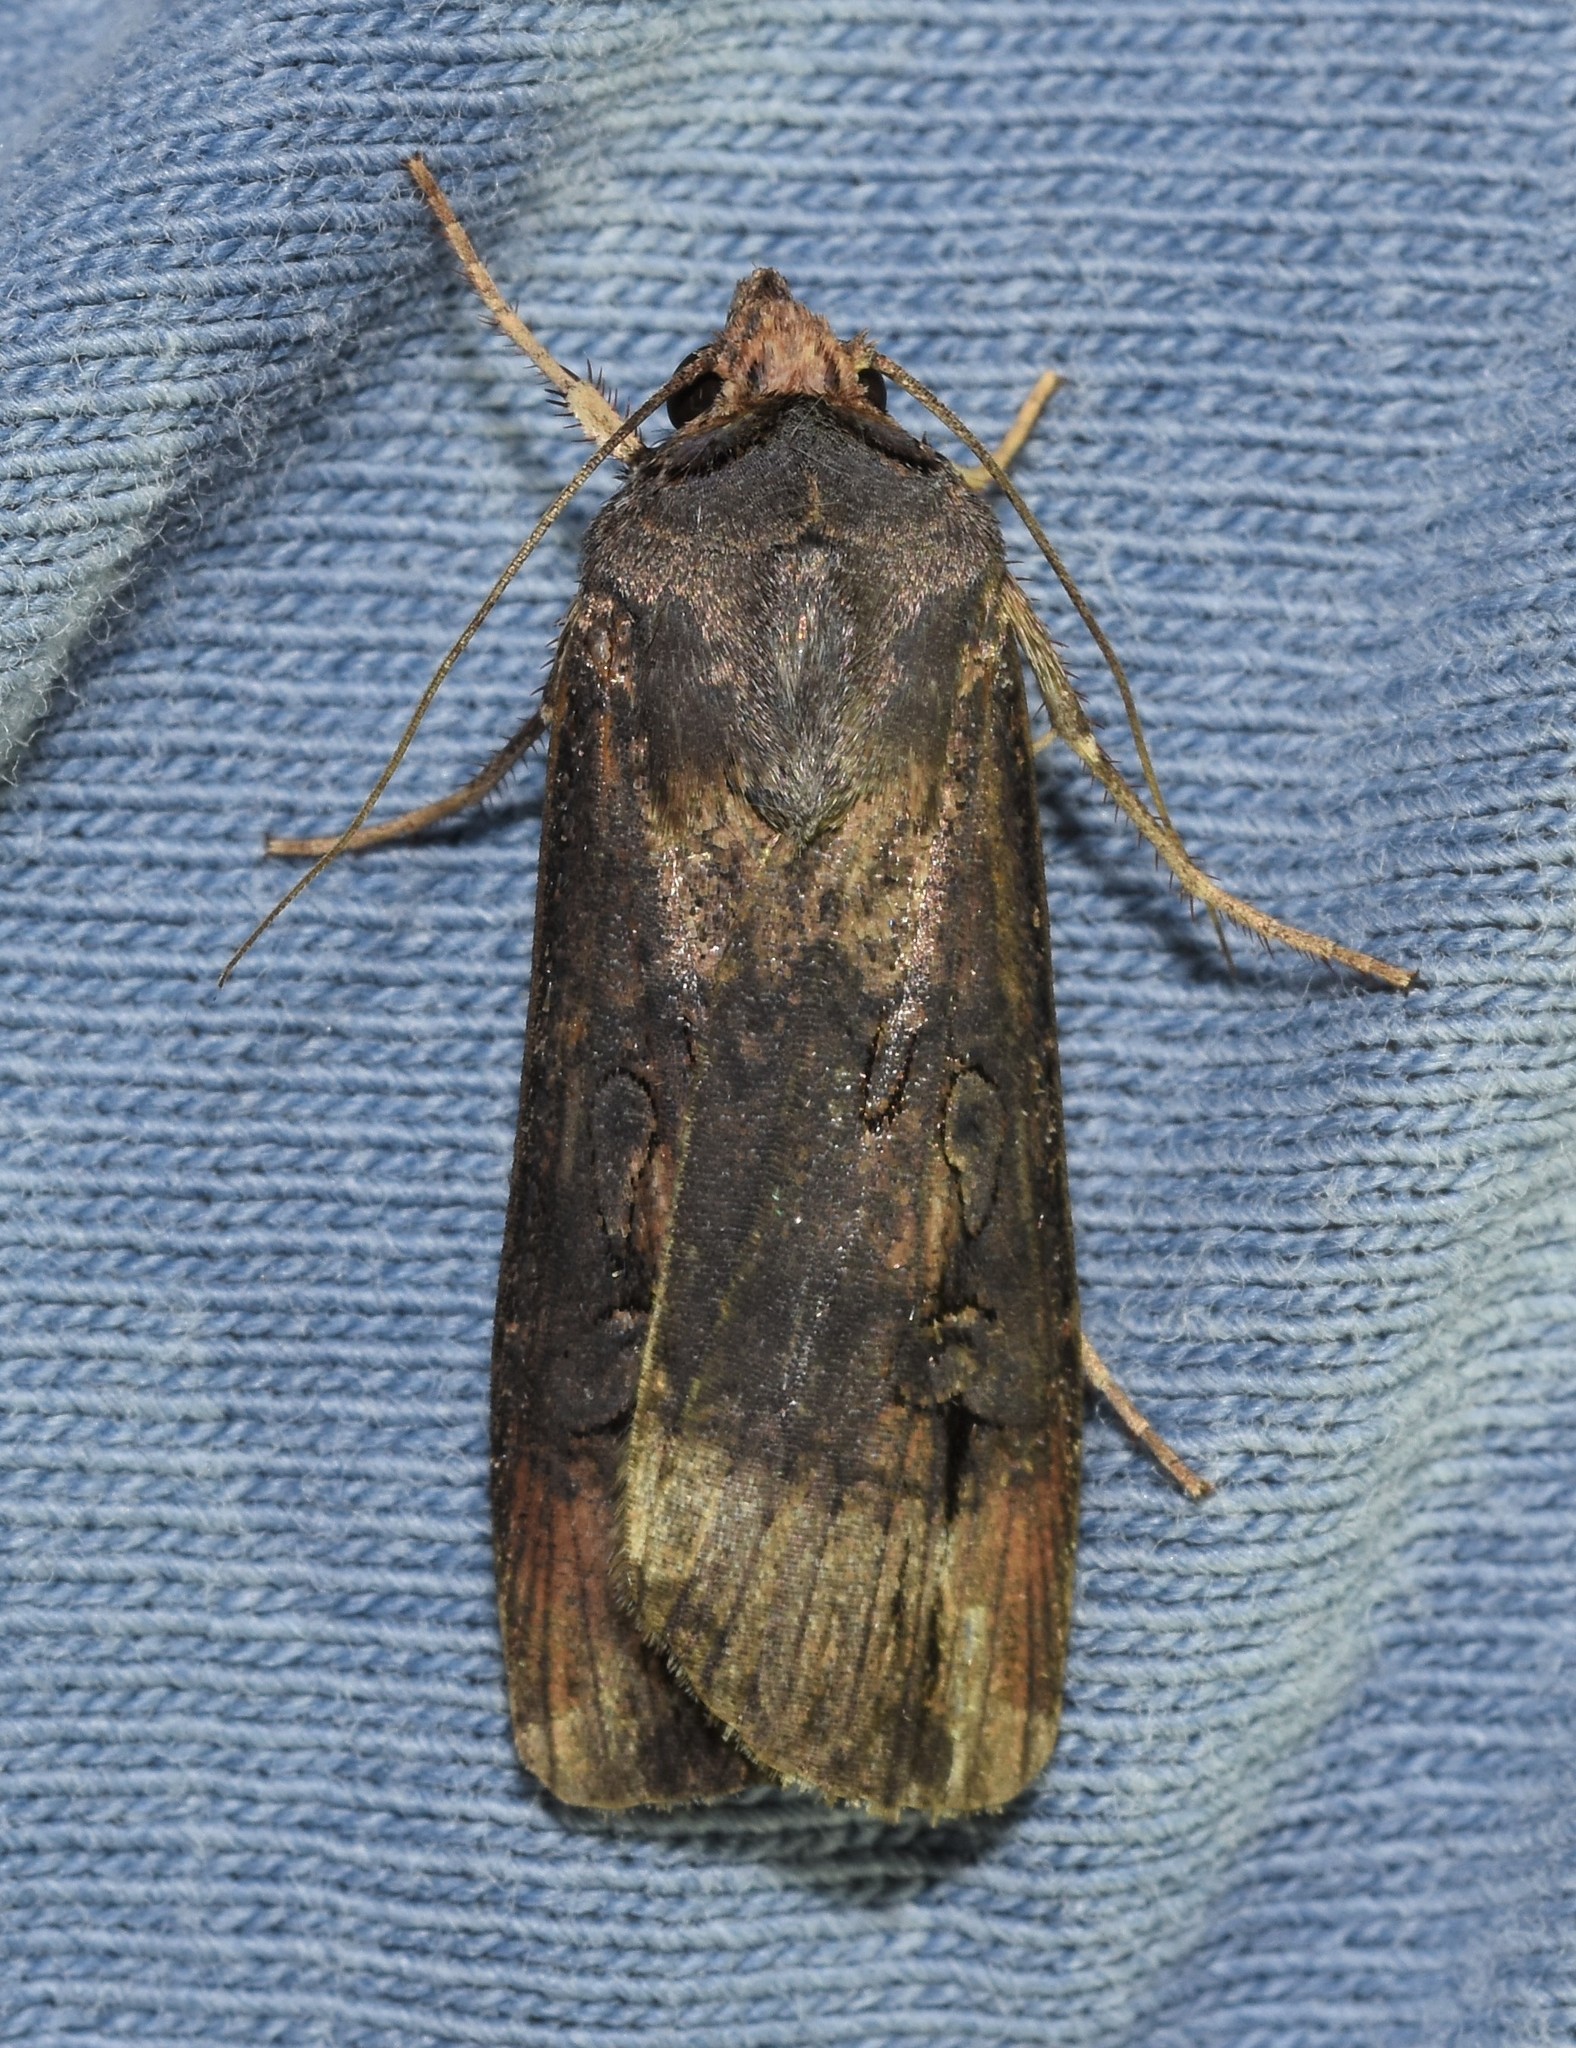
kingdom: Animalia
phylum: Arthropoda
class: Insecta
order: Lepidoptera
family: Noctuidae
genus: Agrotis
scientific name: Agrotis ipsilon
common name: Dark sword-grass
